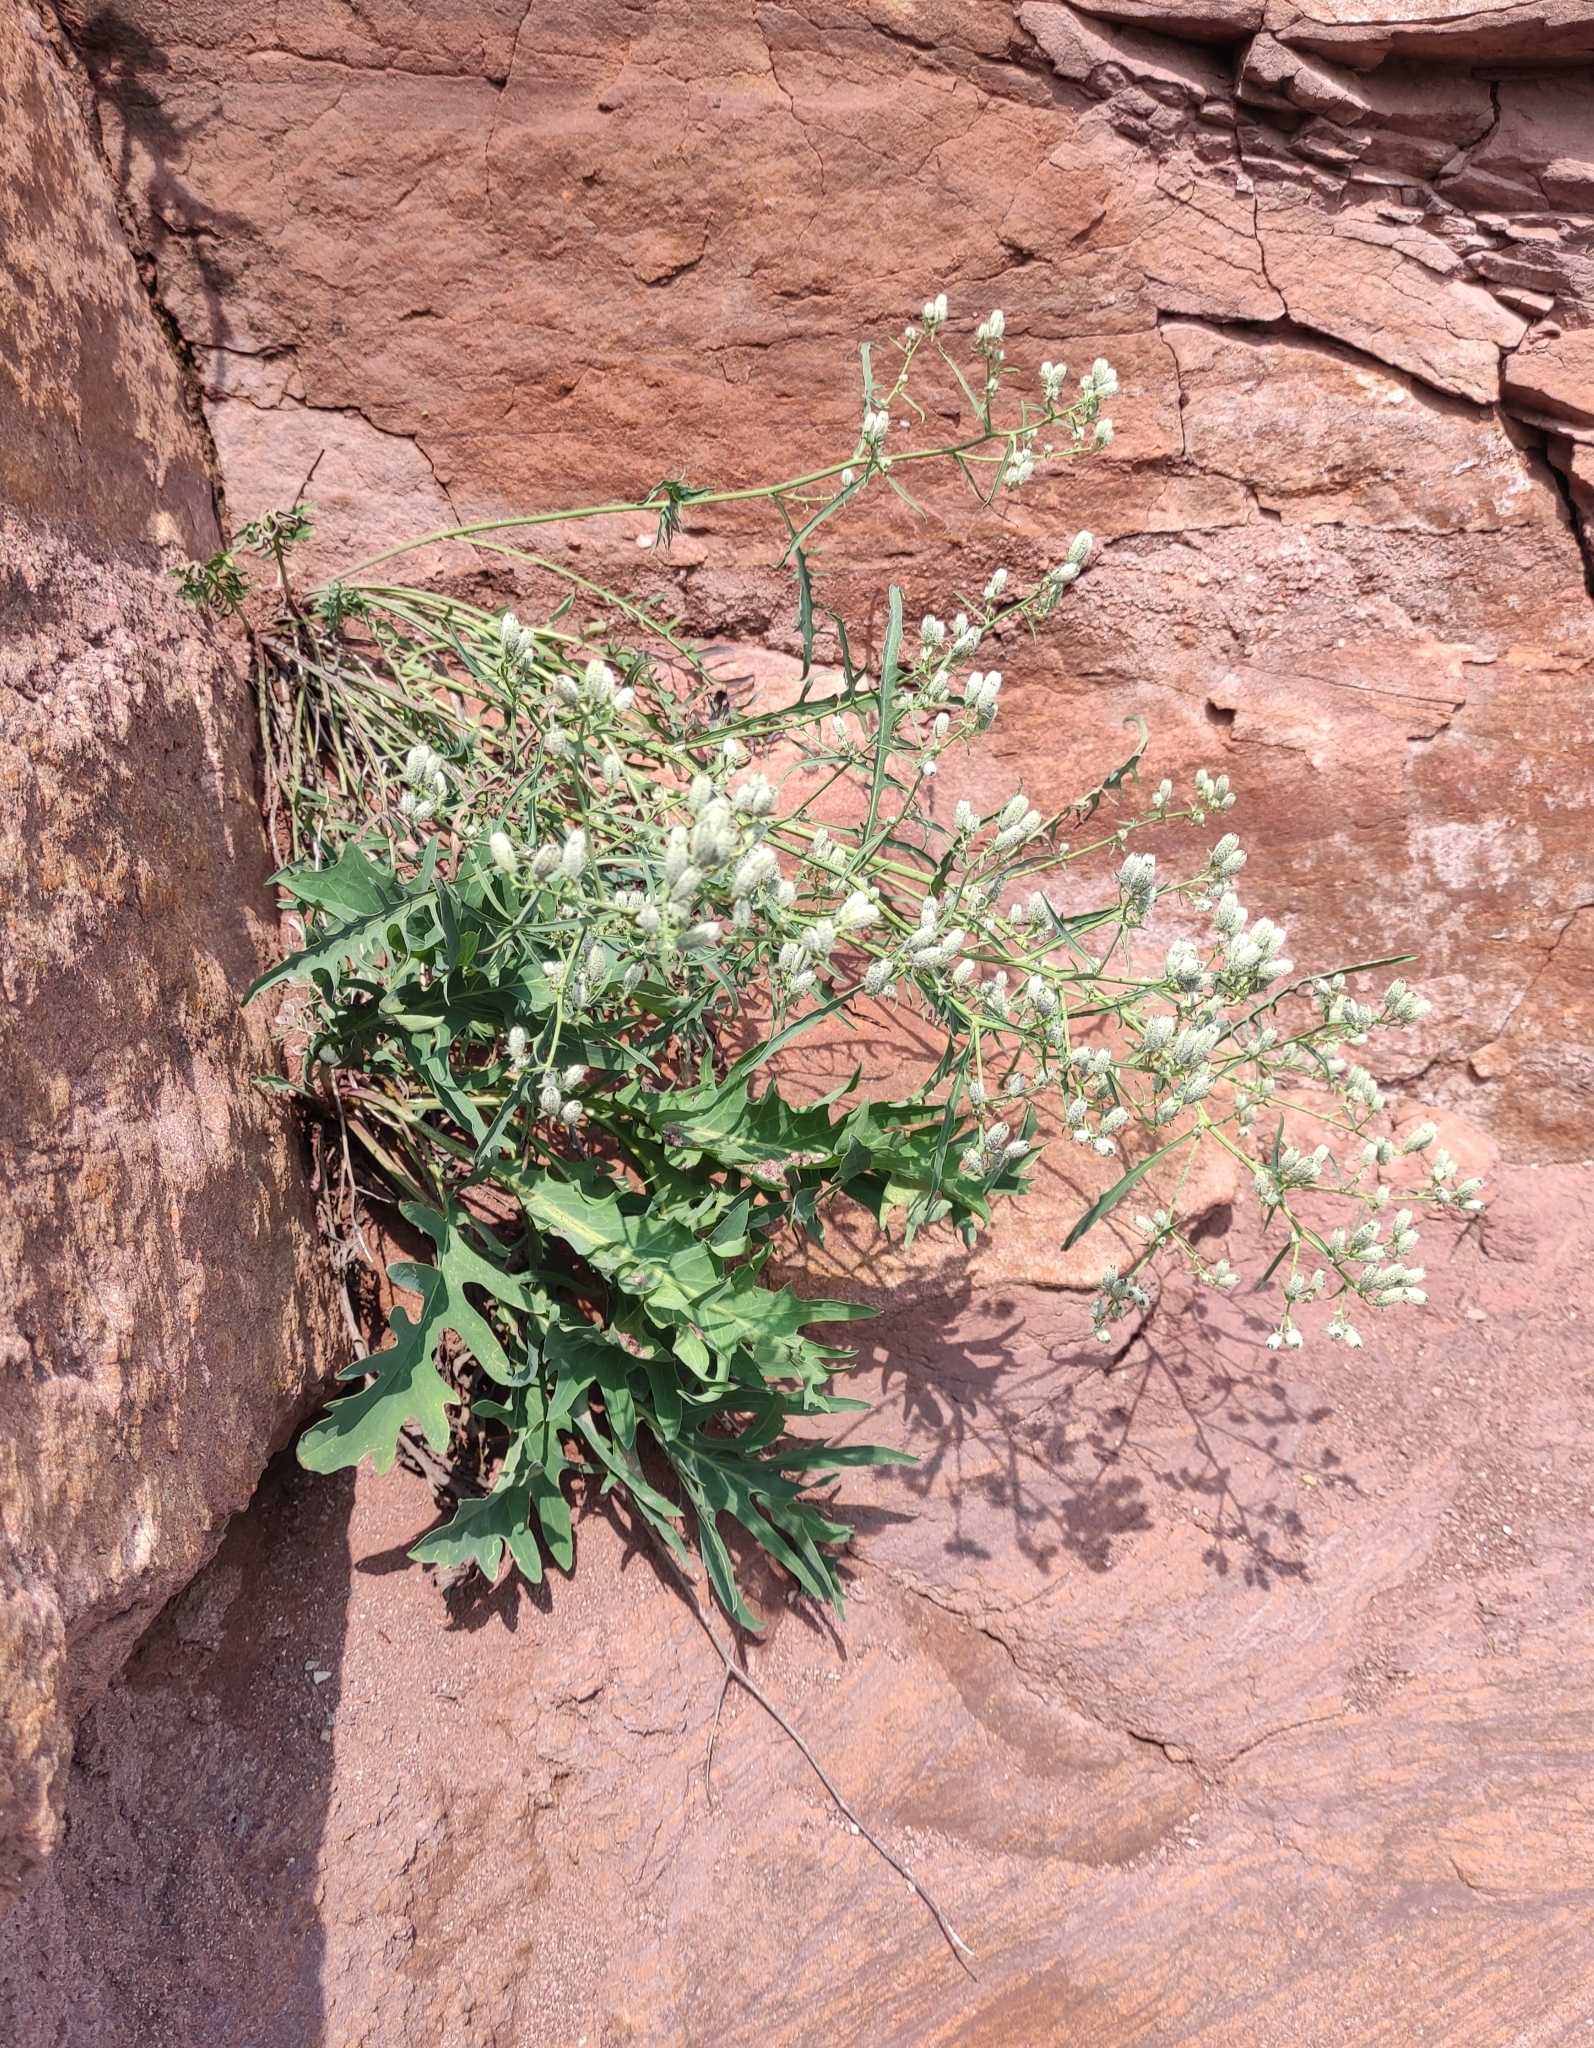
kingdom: Plantae
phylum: Tracheophyta
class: Magnoliopsida
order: Asterales
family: Asteraceae
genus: Crepidiastrum
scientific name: Crepidiastrum tenuifolium
